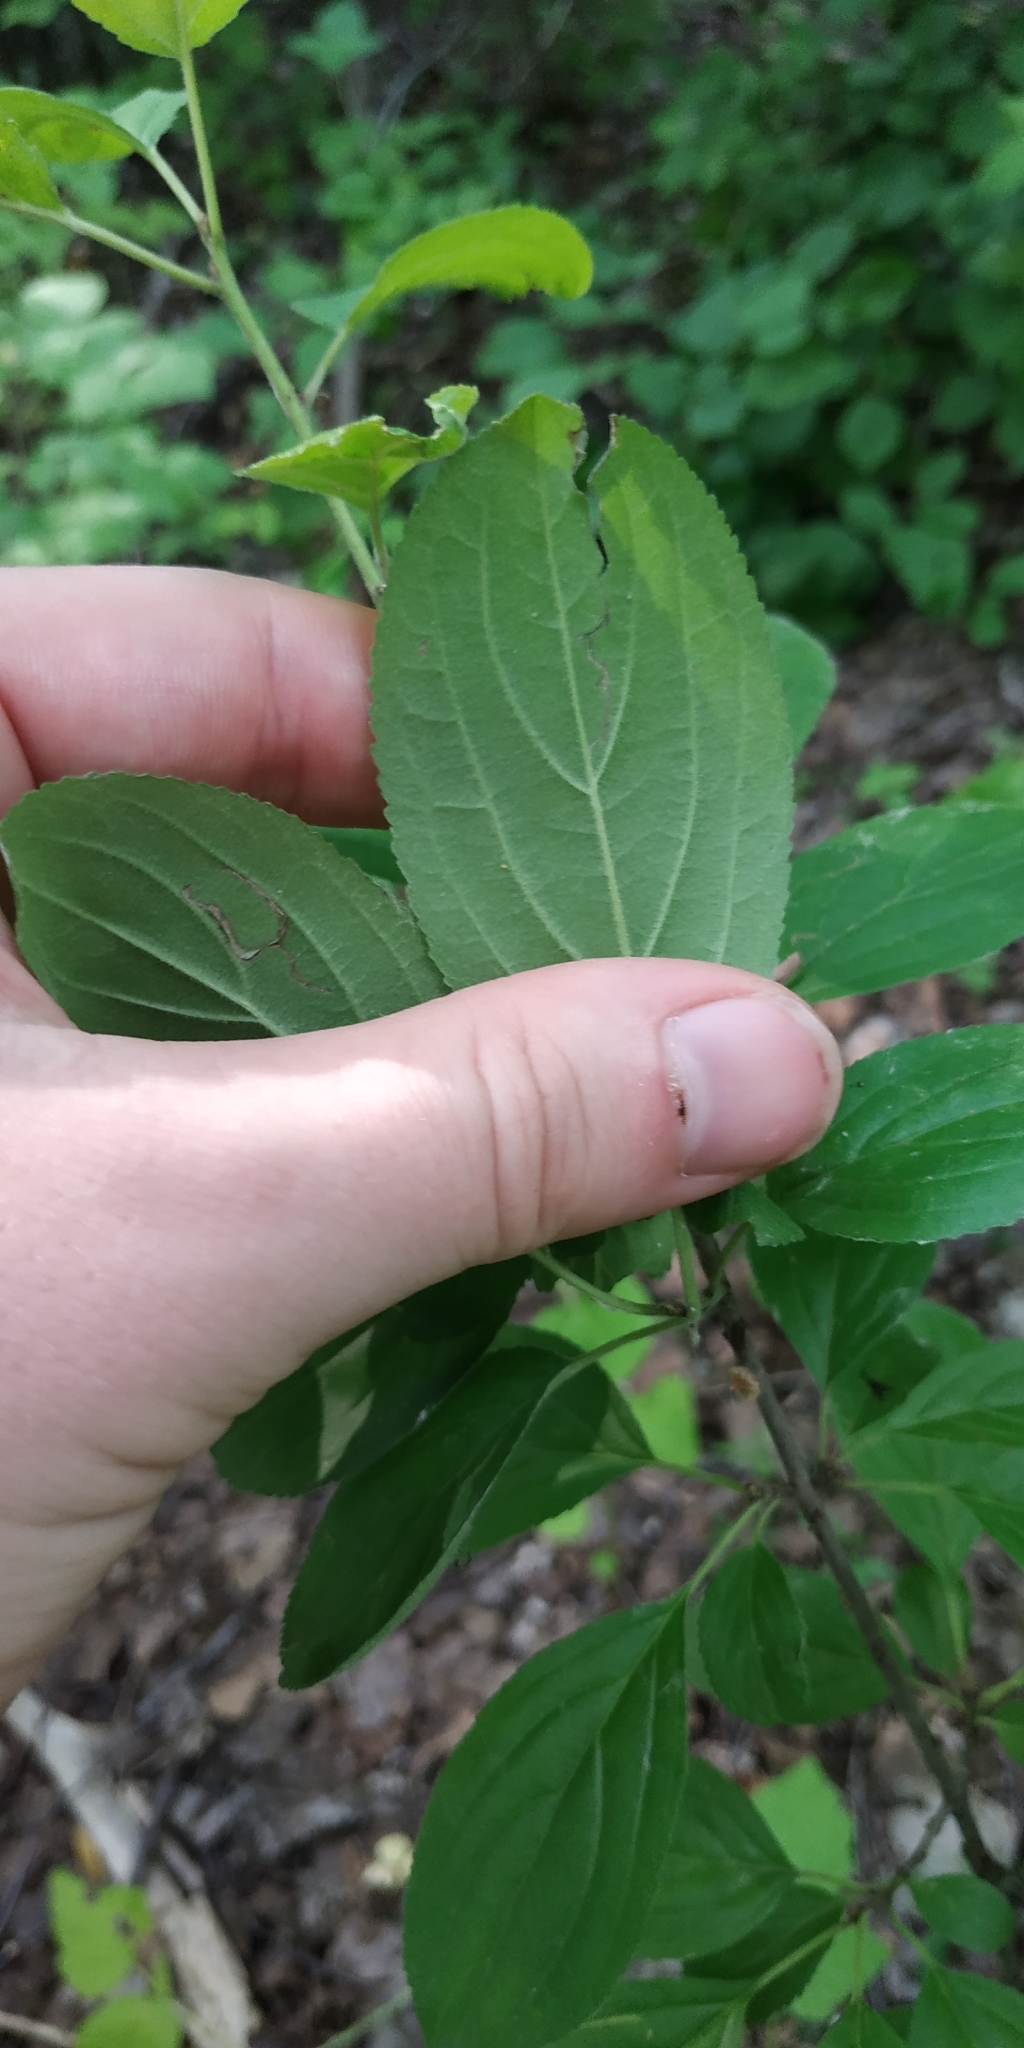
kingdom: Plantae
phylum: Tracheophyta
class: Magnoliopsida
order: Rosales
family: Rhamnaceae
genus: Rhamnus
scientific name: Rhamnus cathartica
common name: Common buckthorn
